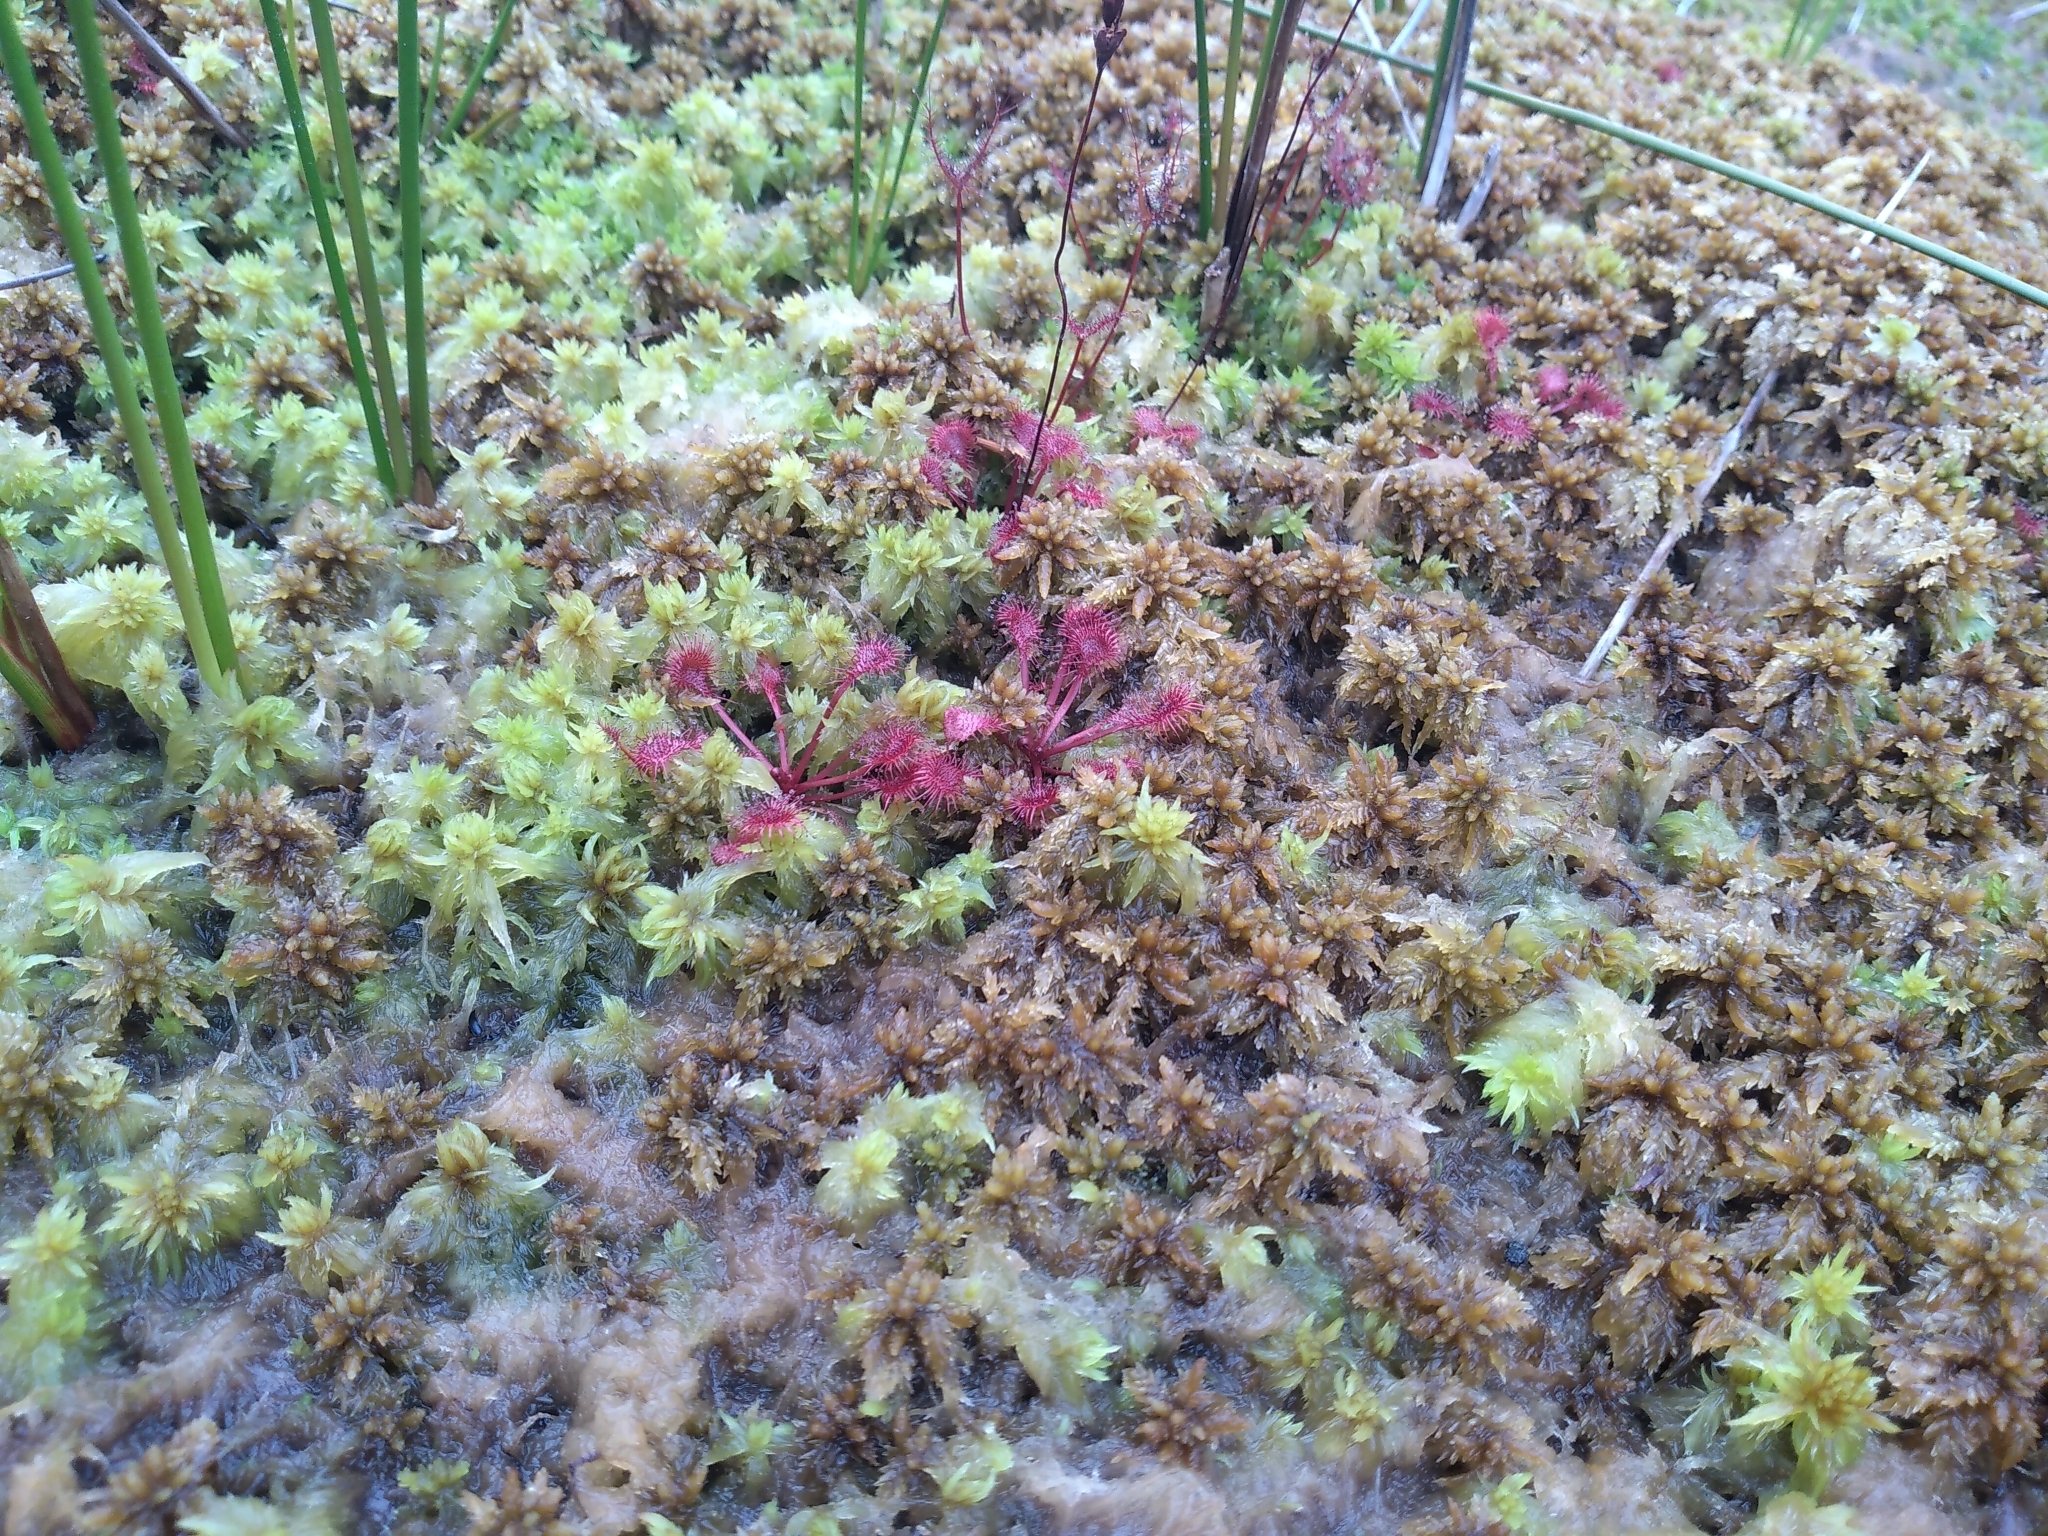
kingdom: Plantae
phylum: Tracheophyta
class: Magnoliopsida
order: Caryophyllales
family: Droseraceae
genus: Drosera
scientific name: Drosera spatulata
